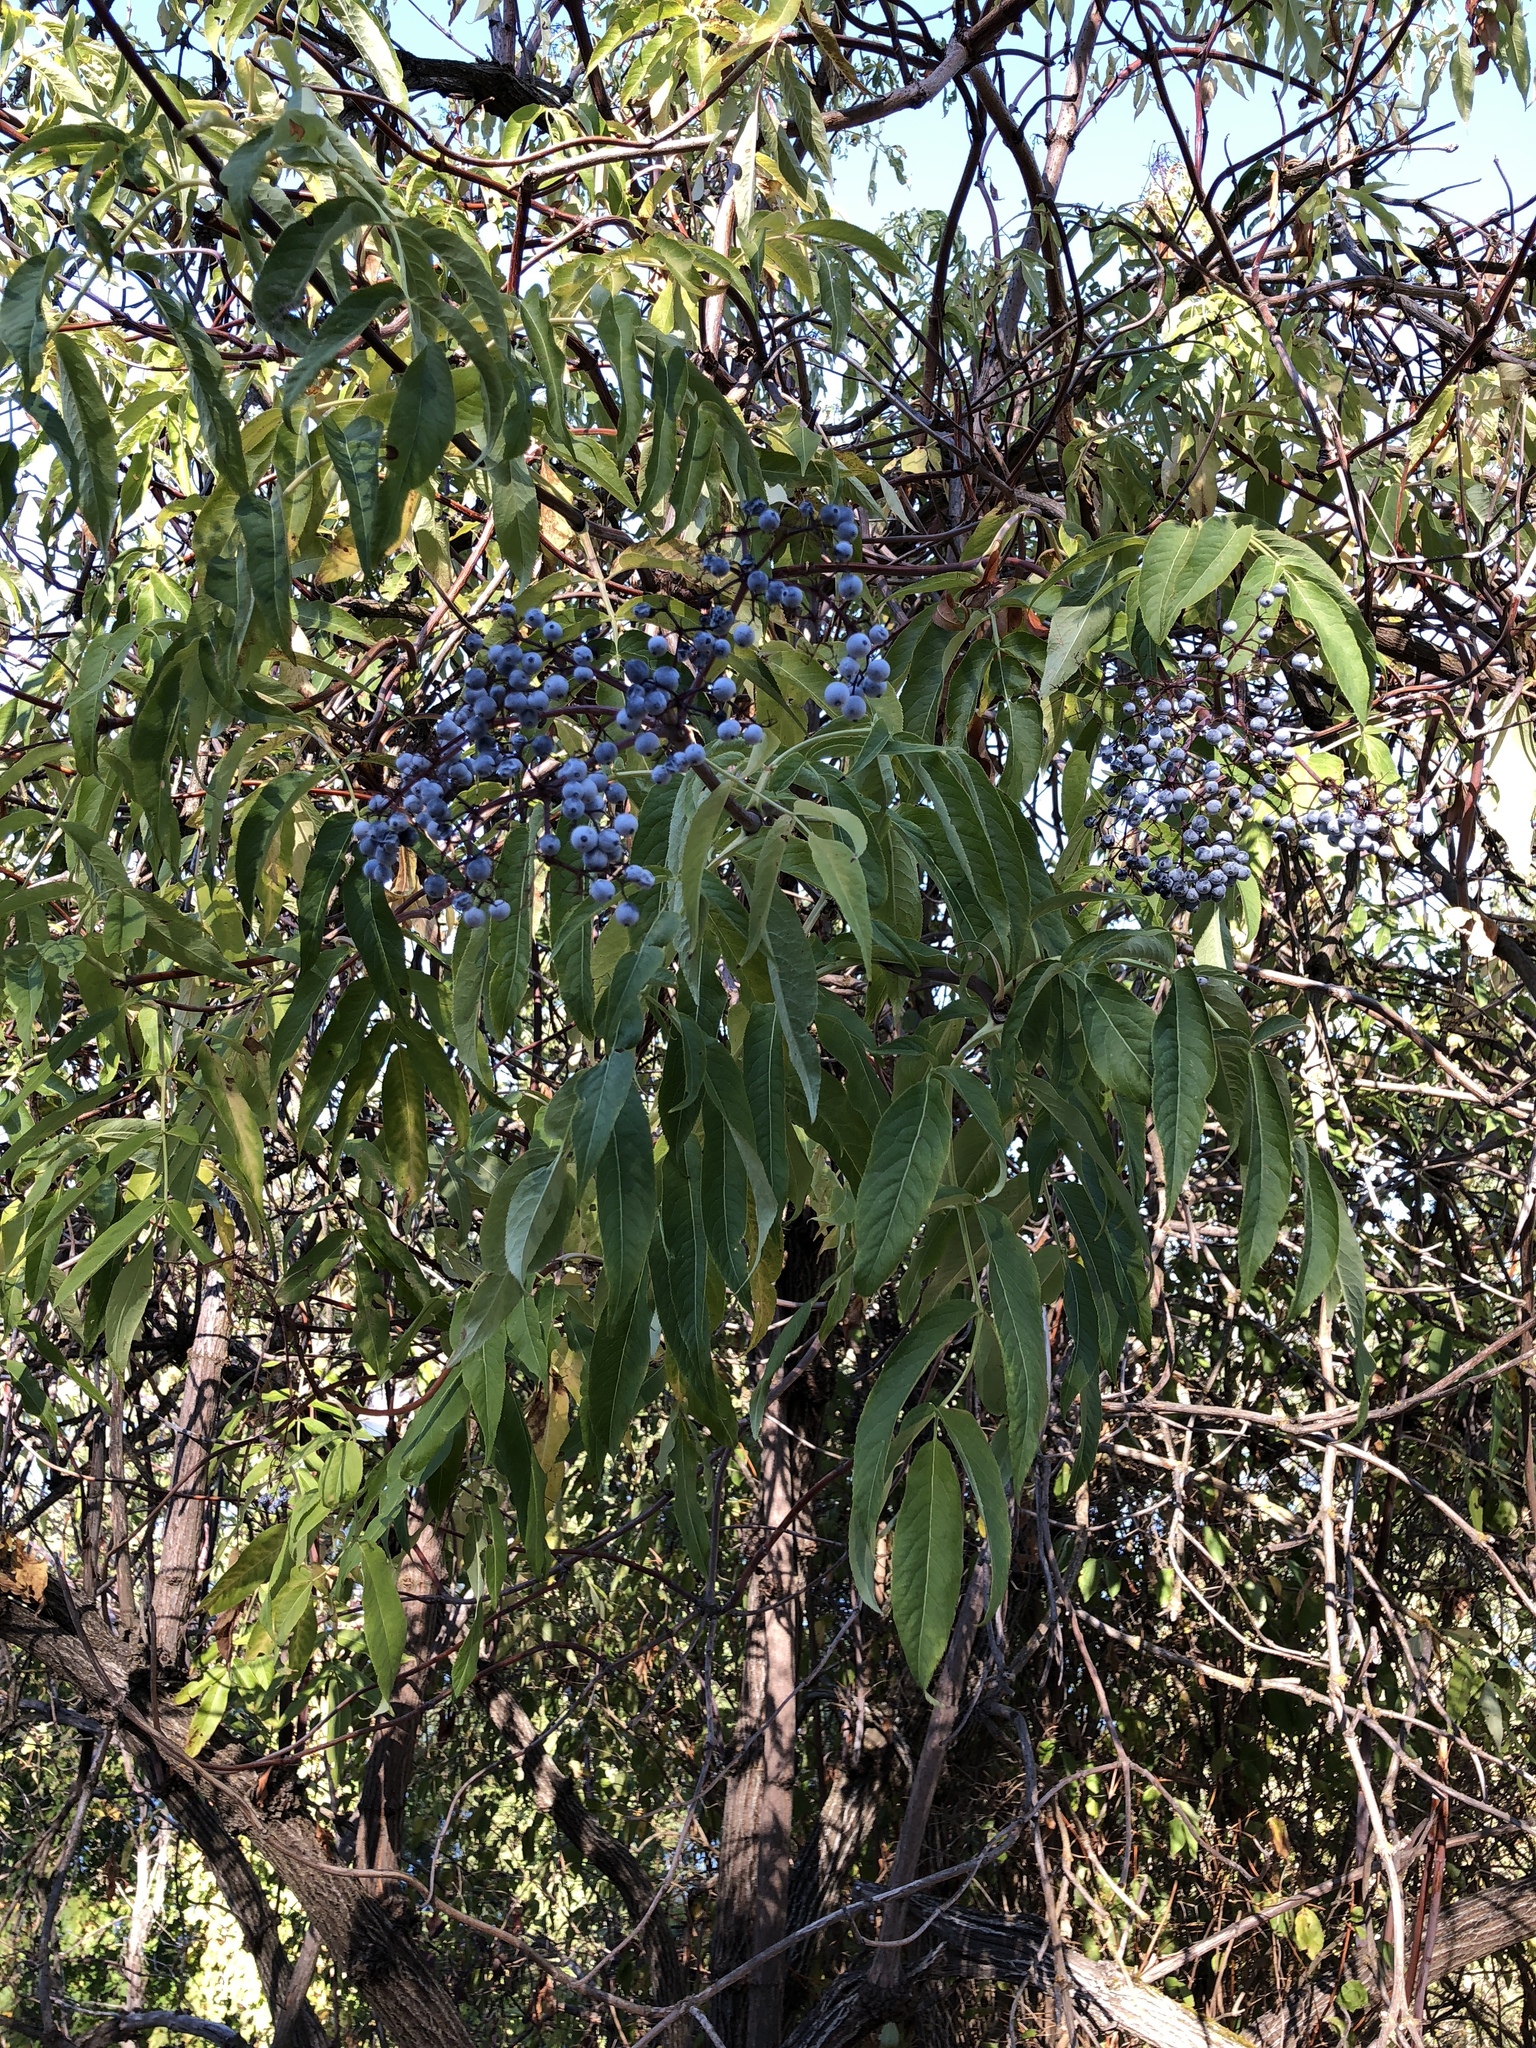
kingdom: Plantae
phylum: Tracheophyta
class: Magnoliopsida
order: Dipsacales
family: Viburnaceae
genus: Sambucus
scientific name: Sambucus cerulea
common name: Blue elder
